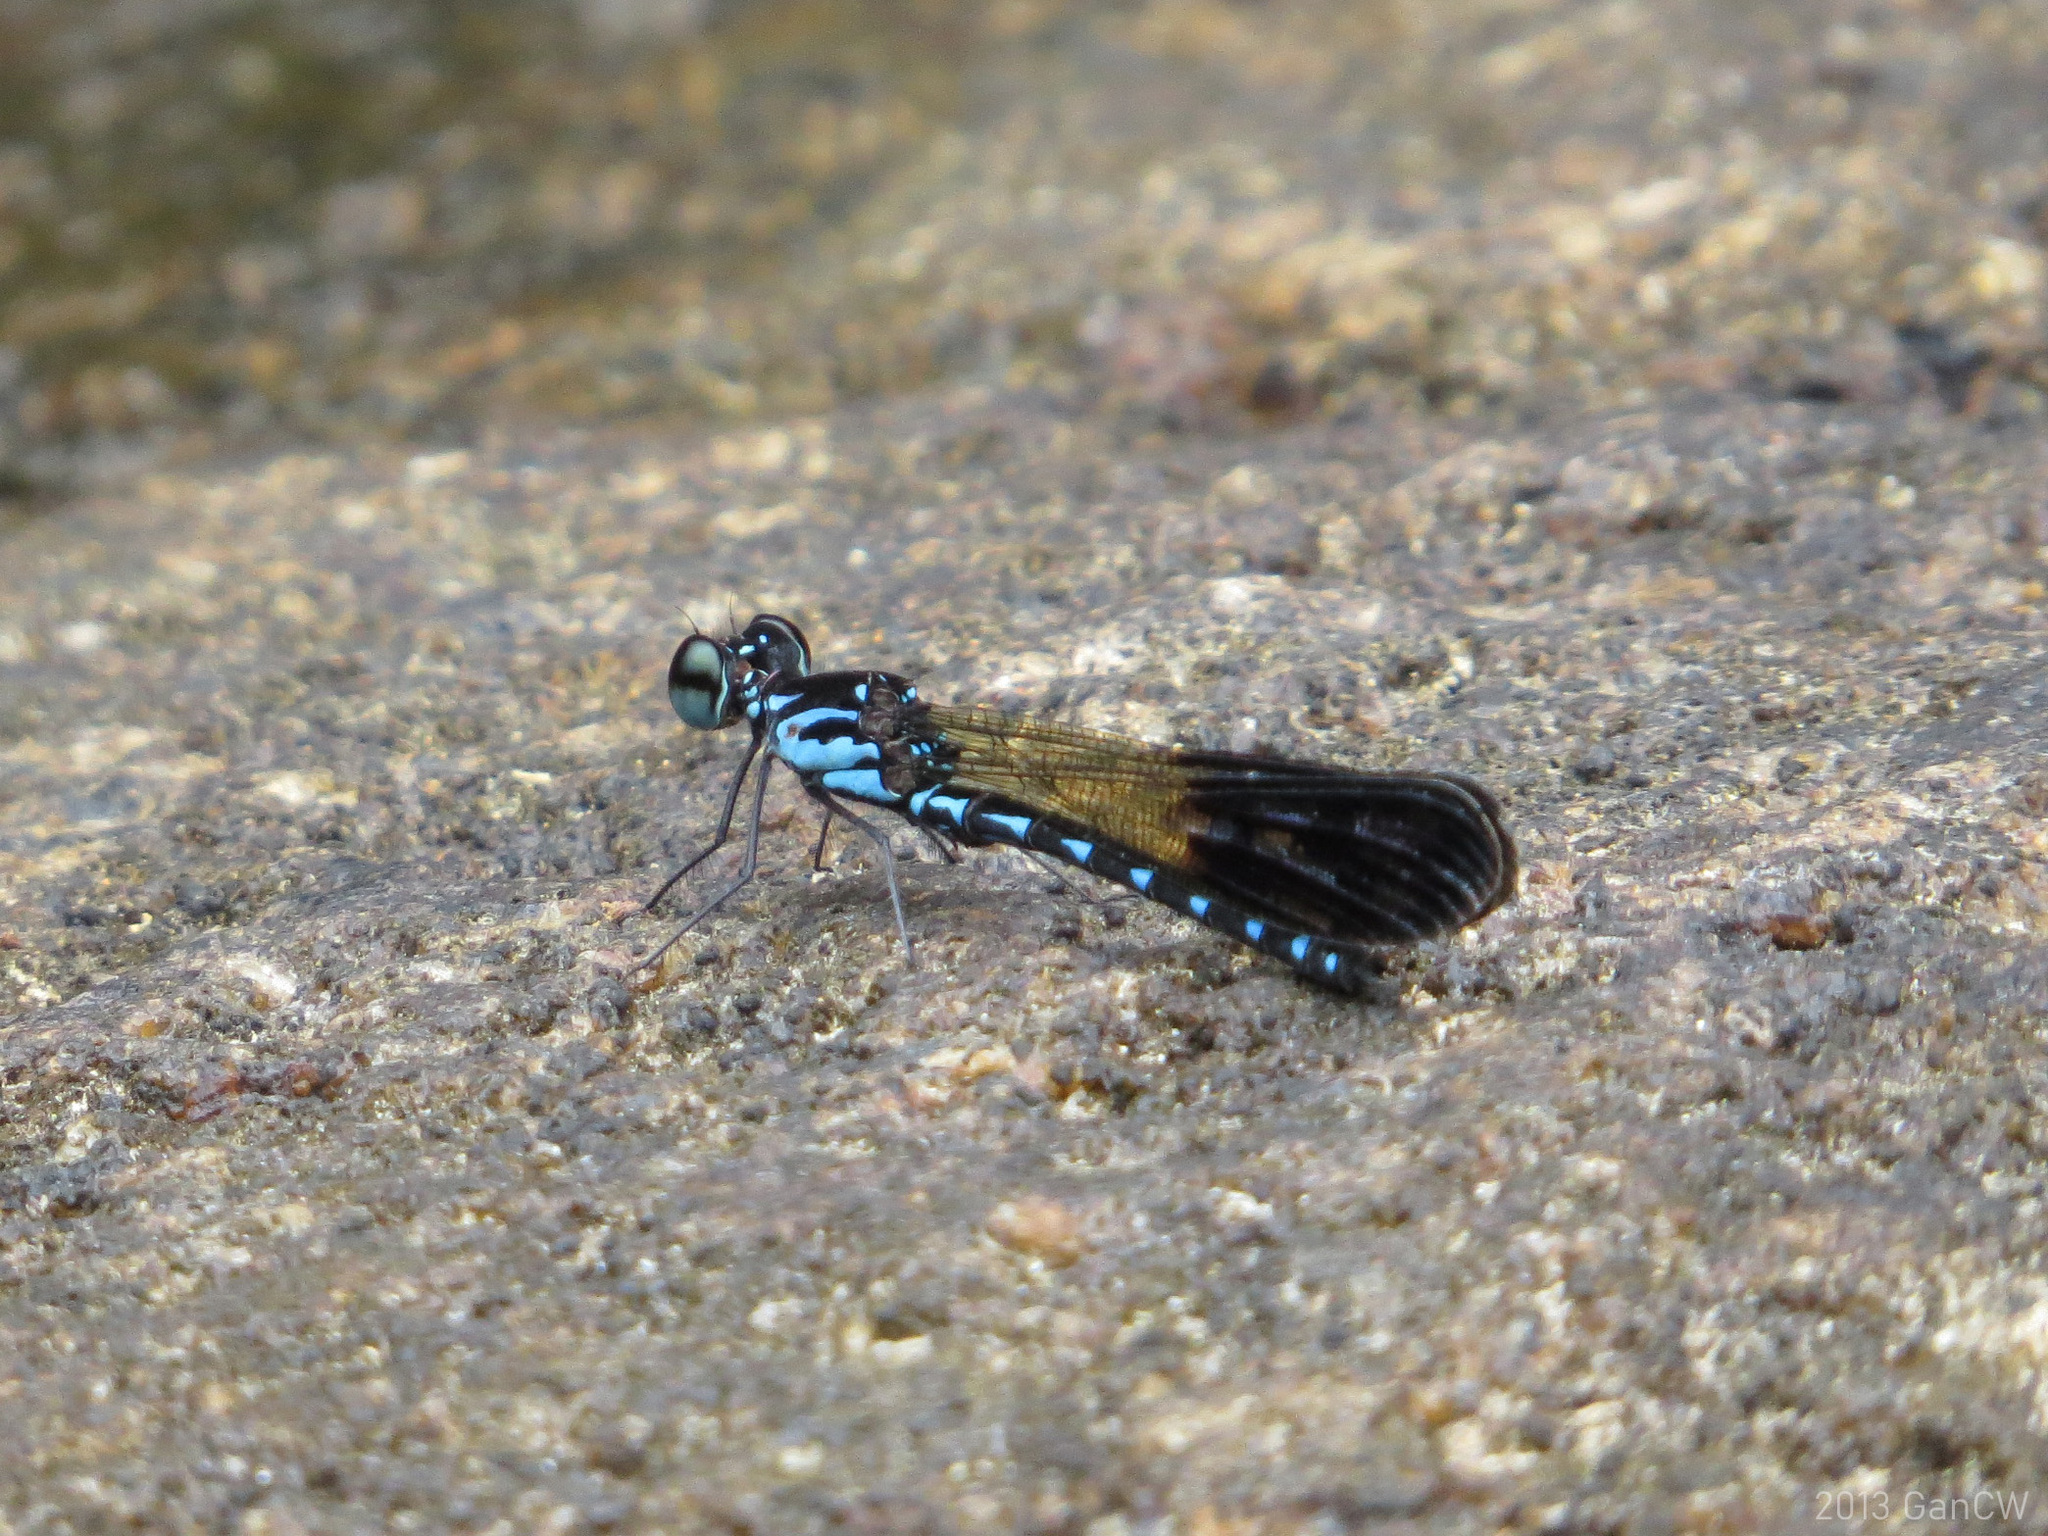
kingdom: Animalia
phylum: Arthropoda
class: Insecta
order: Odonata
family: Chlorocyphidae
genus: Heliocypha
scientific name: Heliocypha perforata
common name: Common blue jewel
